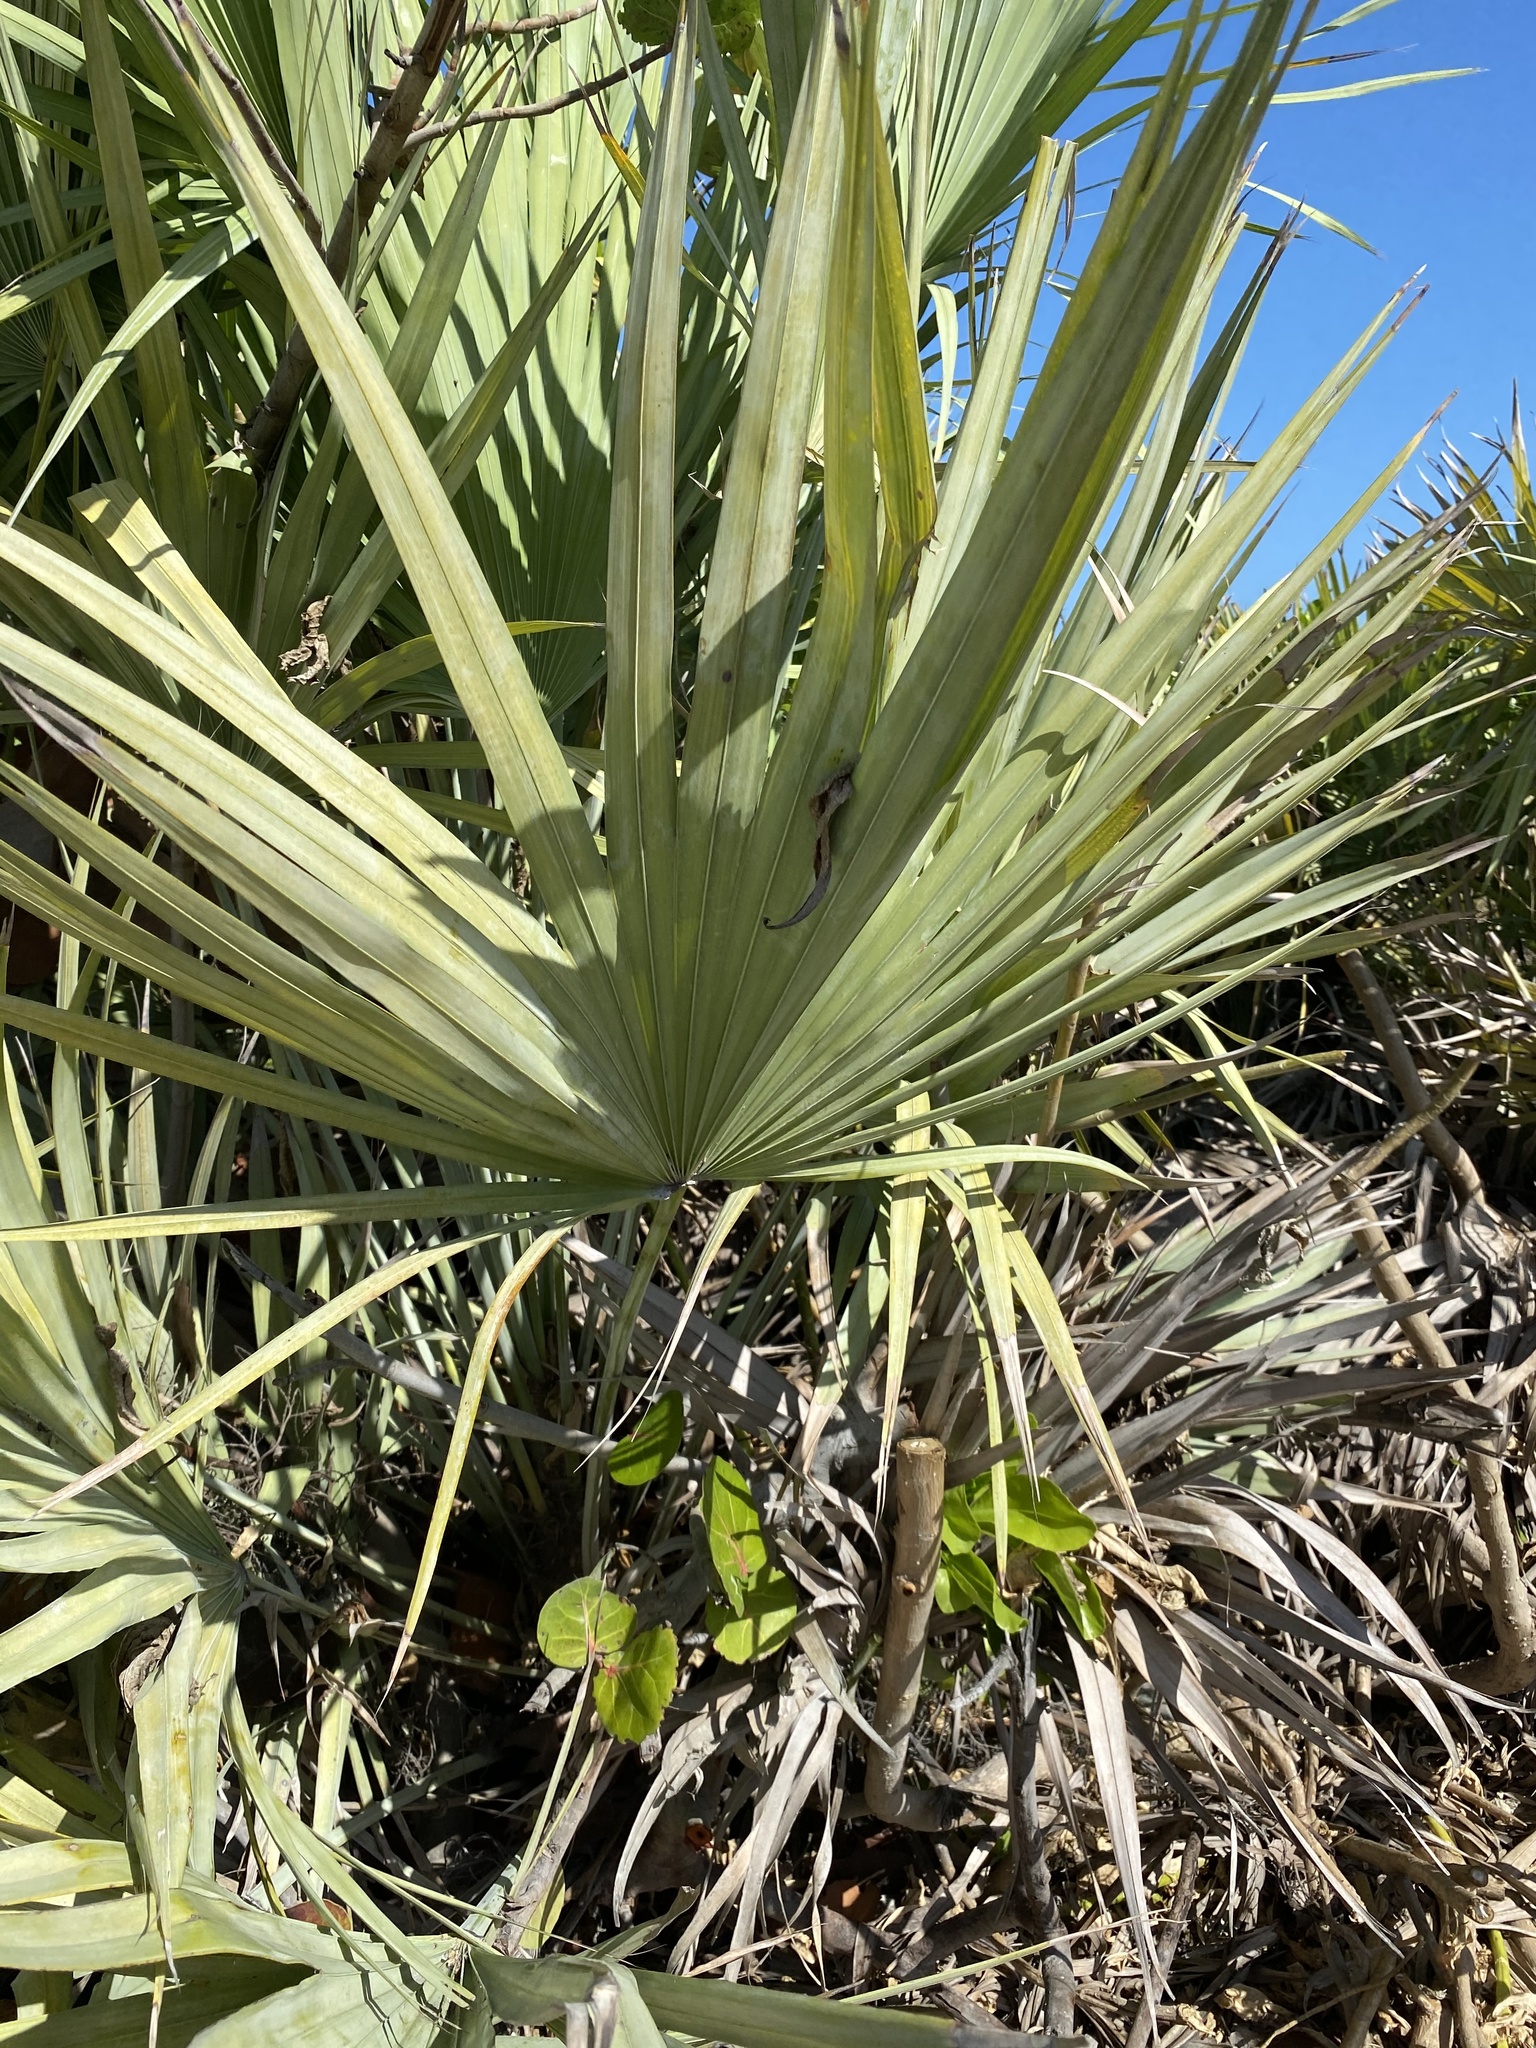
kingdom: Plantae
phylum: Tracheophyta
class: Liliopsida
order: Arecales
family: Arecaceae
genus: Serenoa
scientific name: Serenoa repens
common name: Saw-palmetto
